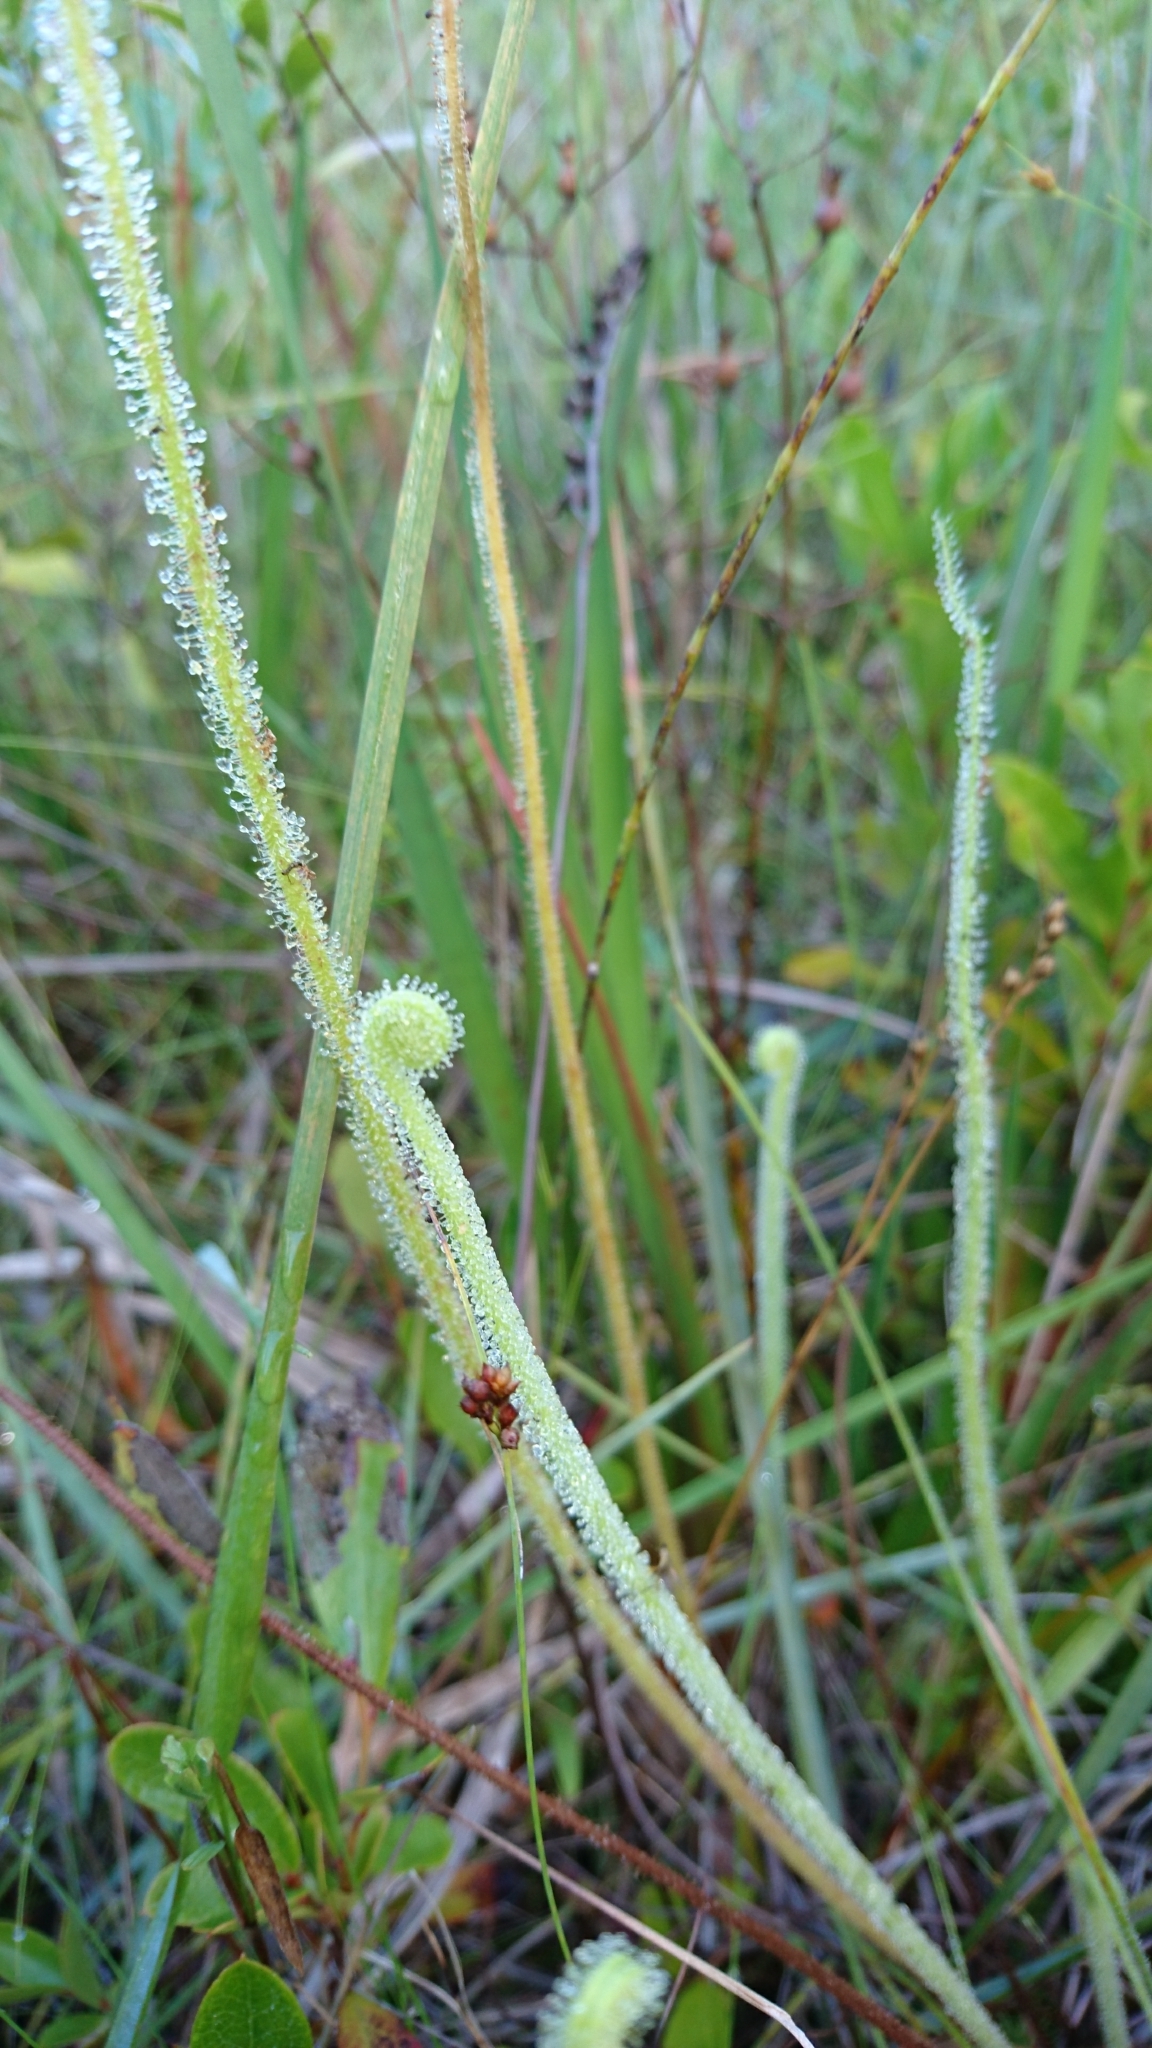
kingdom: Plantae
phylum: Tracheophyta
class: Magnoliopsida
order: Caryophyllales
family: Droseraceae
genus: Drosera
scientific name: Drosera filiformis
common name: Dew-thread
